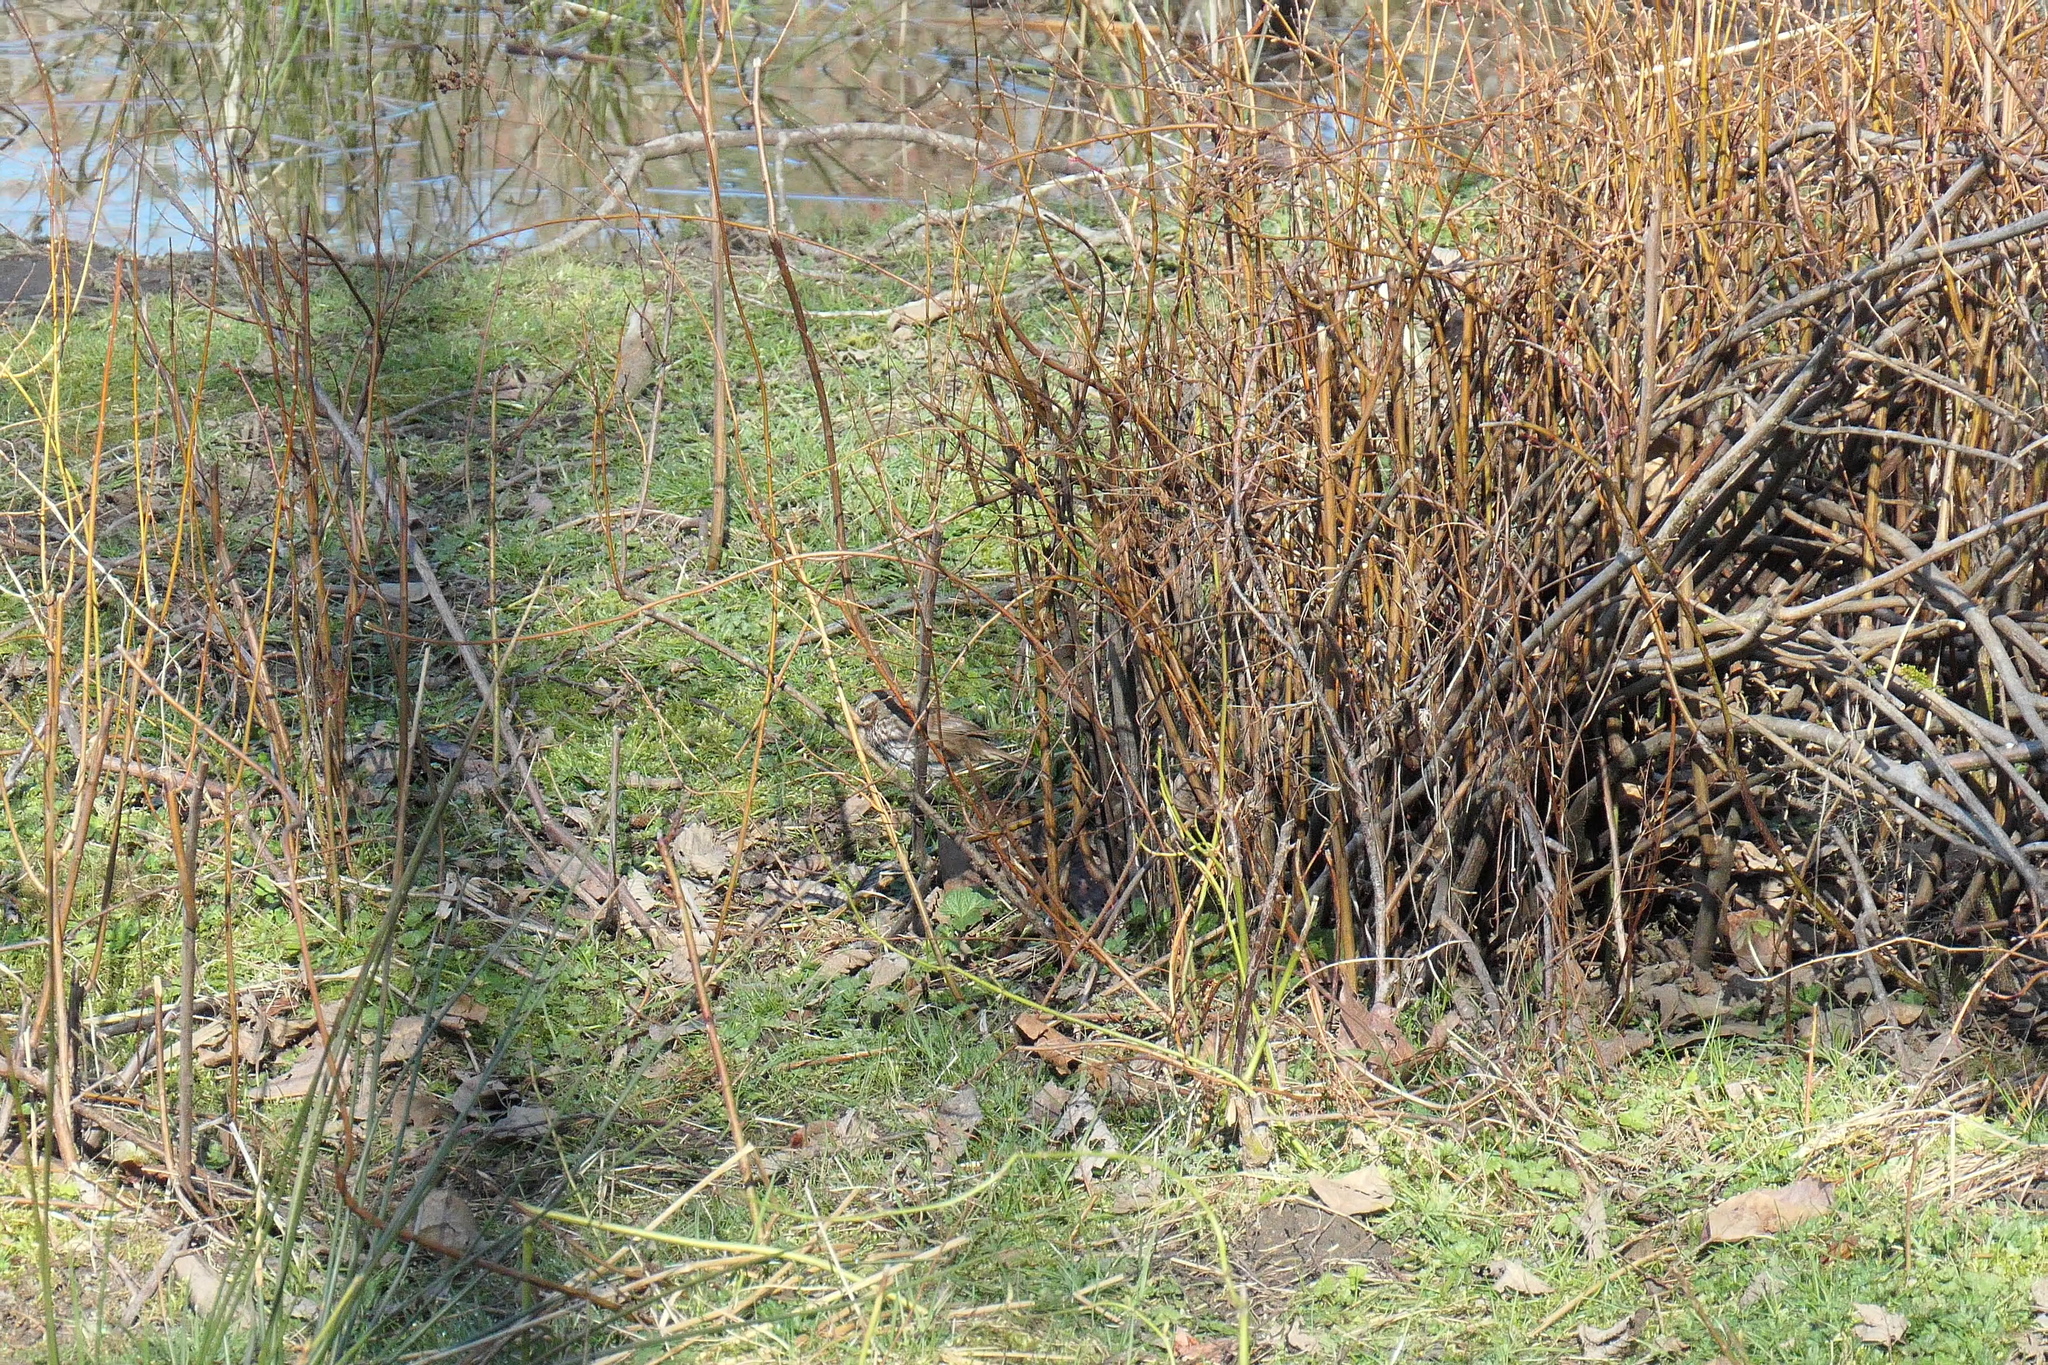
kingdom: Animalia
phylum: Chordata
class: Aves
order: Passeriformes
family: Passerellidae
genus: Melospiza
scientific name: Melospiza melodia
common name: Song sparrow
